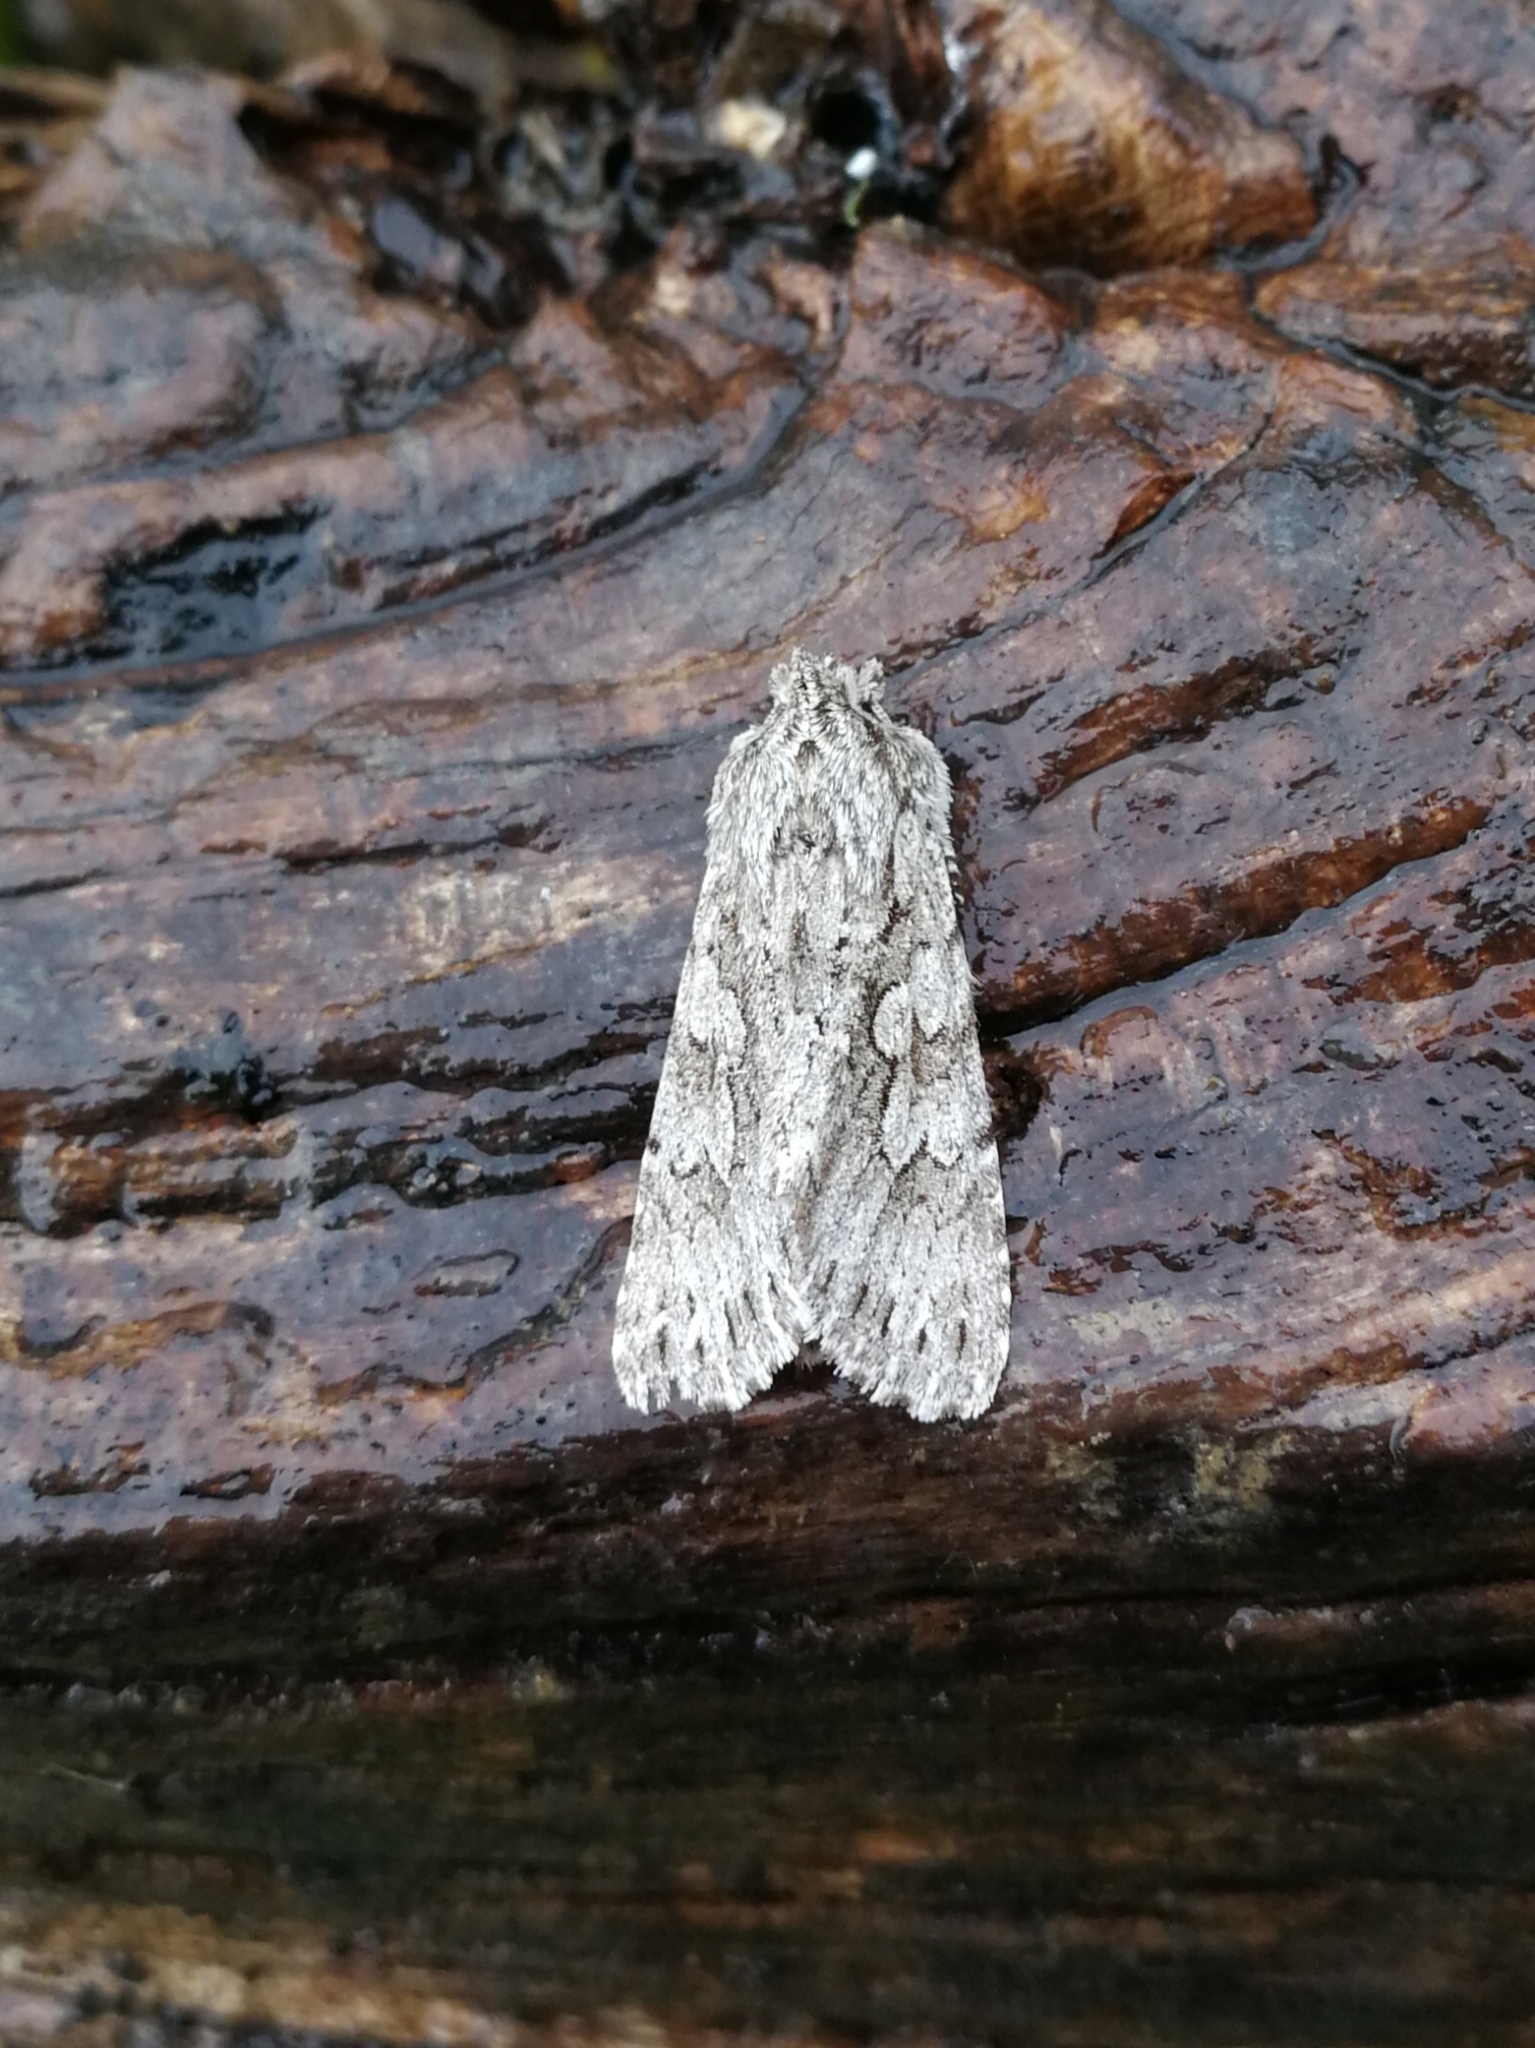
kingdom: Animalia
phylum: Arthropoda
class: Insecta
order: Lepidoptera
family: Noctuidae
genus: Xylocampa
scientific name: Xylocampa areola
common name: Early grey
